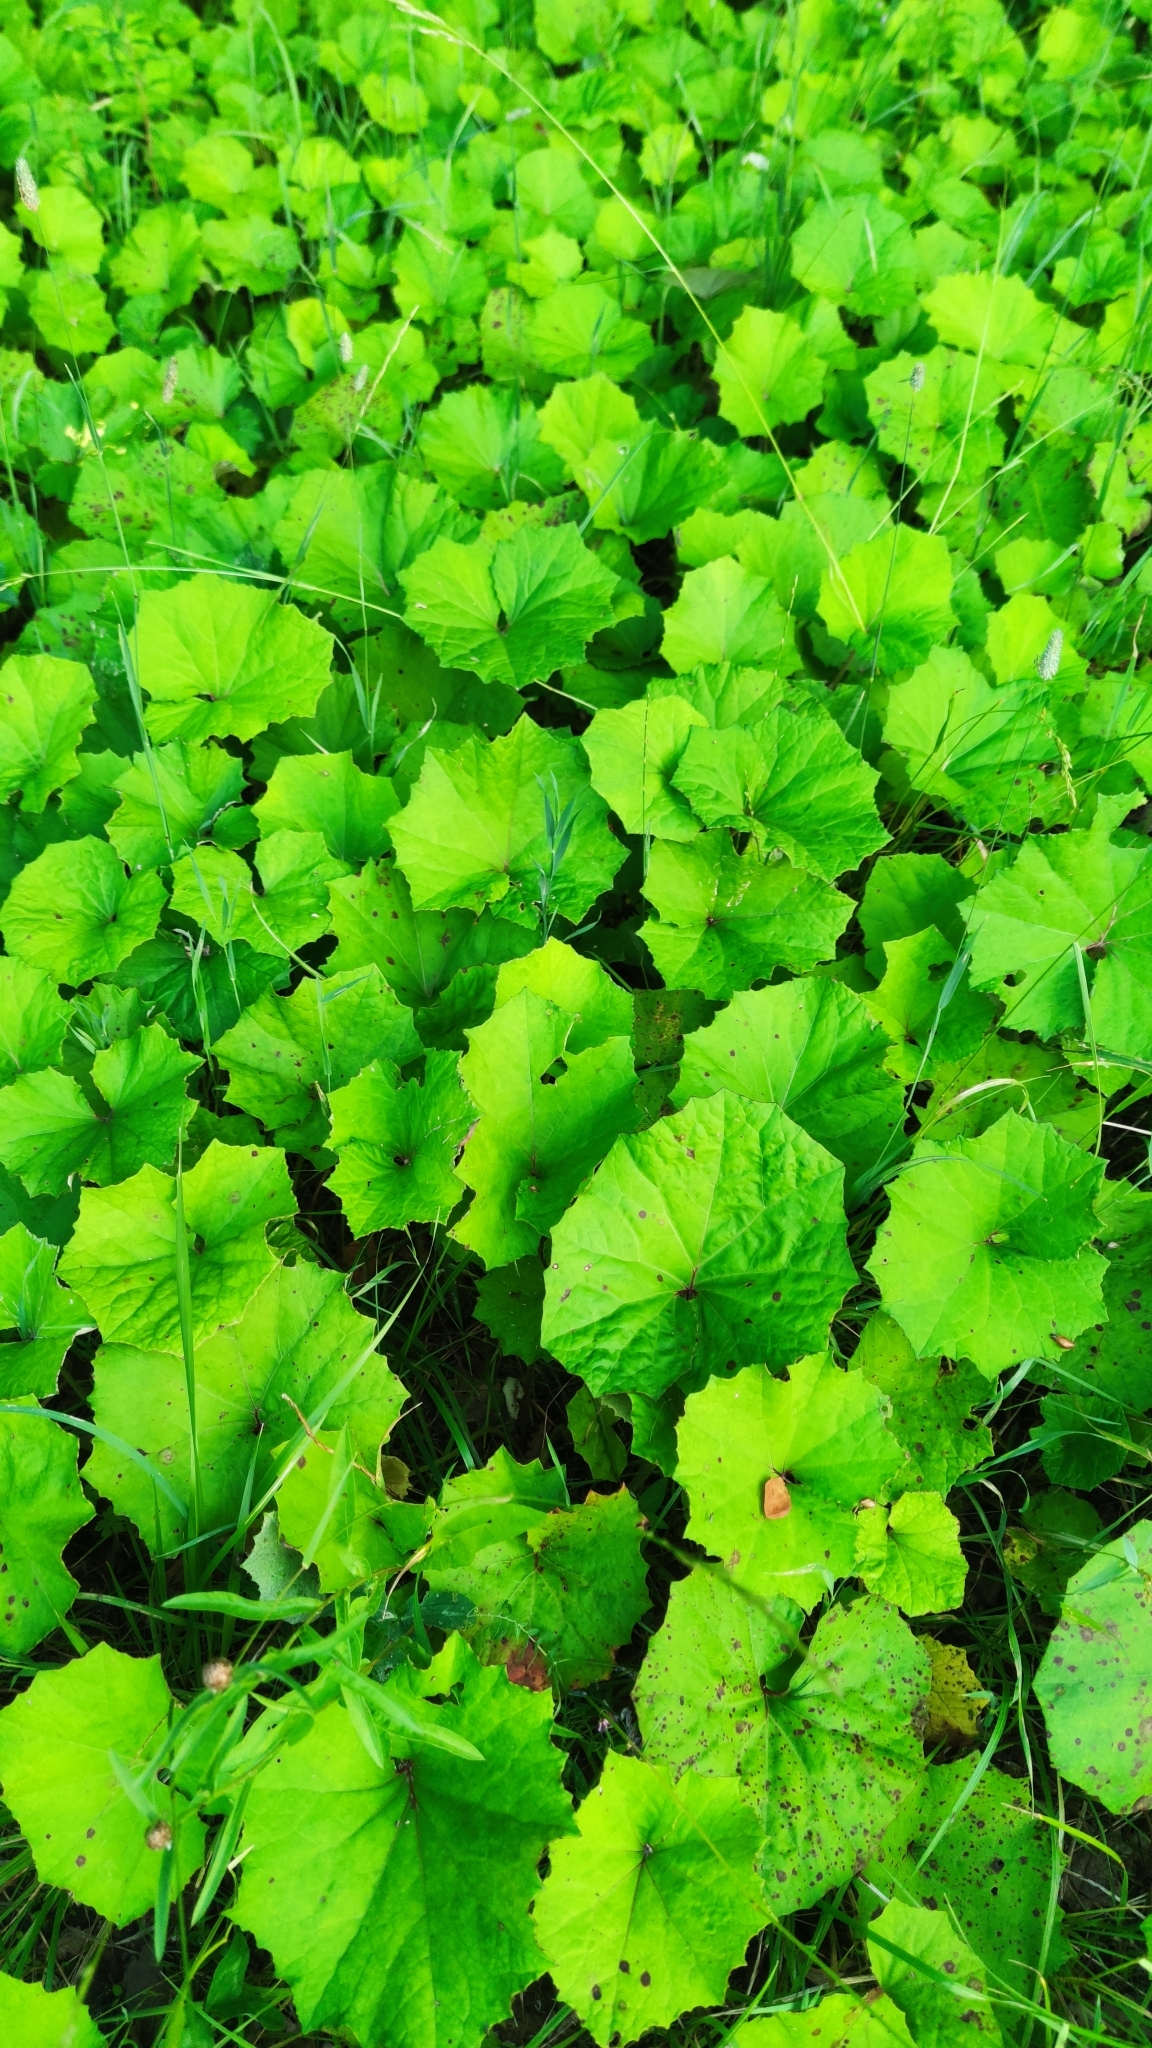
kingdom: Plantae
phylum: Tracheophyta
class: Magnoliopsida
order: Asterales
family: Asteraceae
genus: Tussilago
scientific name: Tussilago farfara
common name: Coltsfoot
